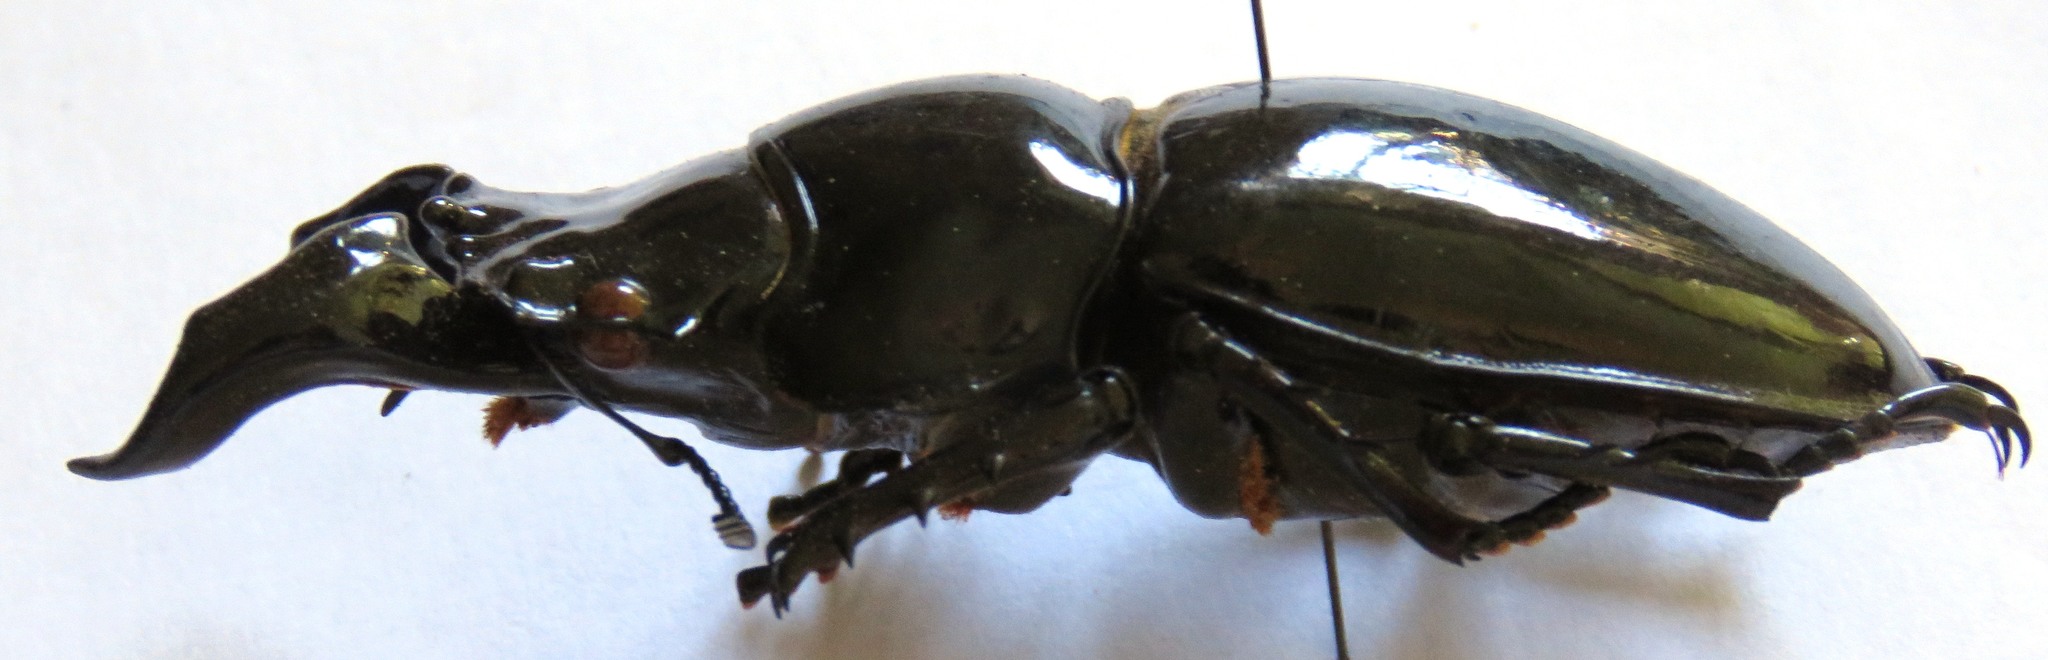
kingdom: Animalia
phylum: Arthropoda
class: Insecta
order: Coleoptera
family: Lucanidae
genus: Mesotopus
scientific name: Mesotopus imperator
